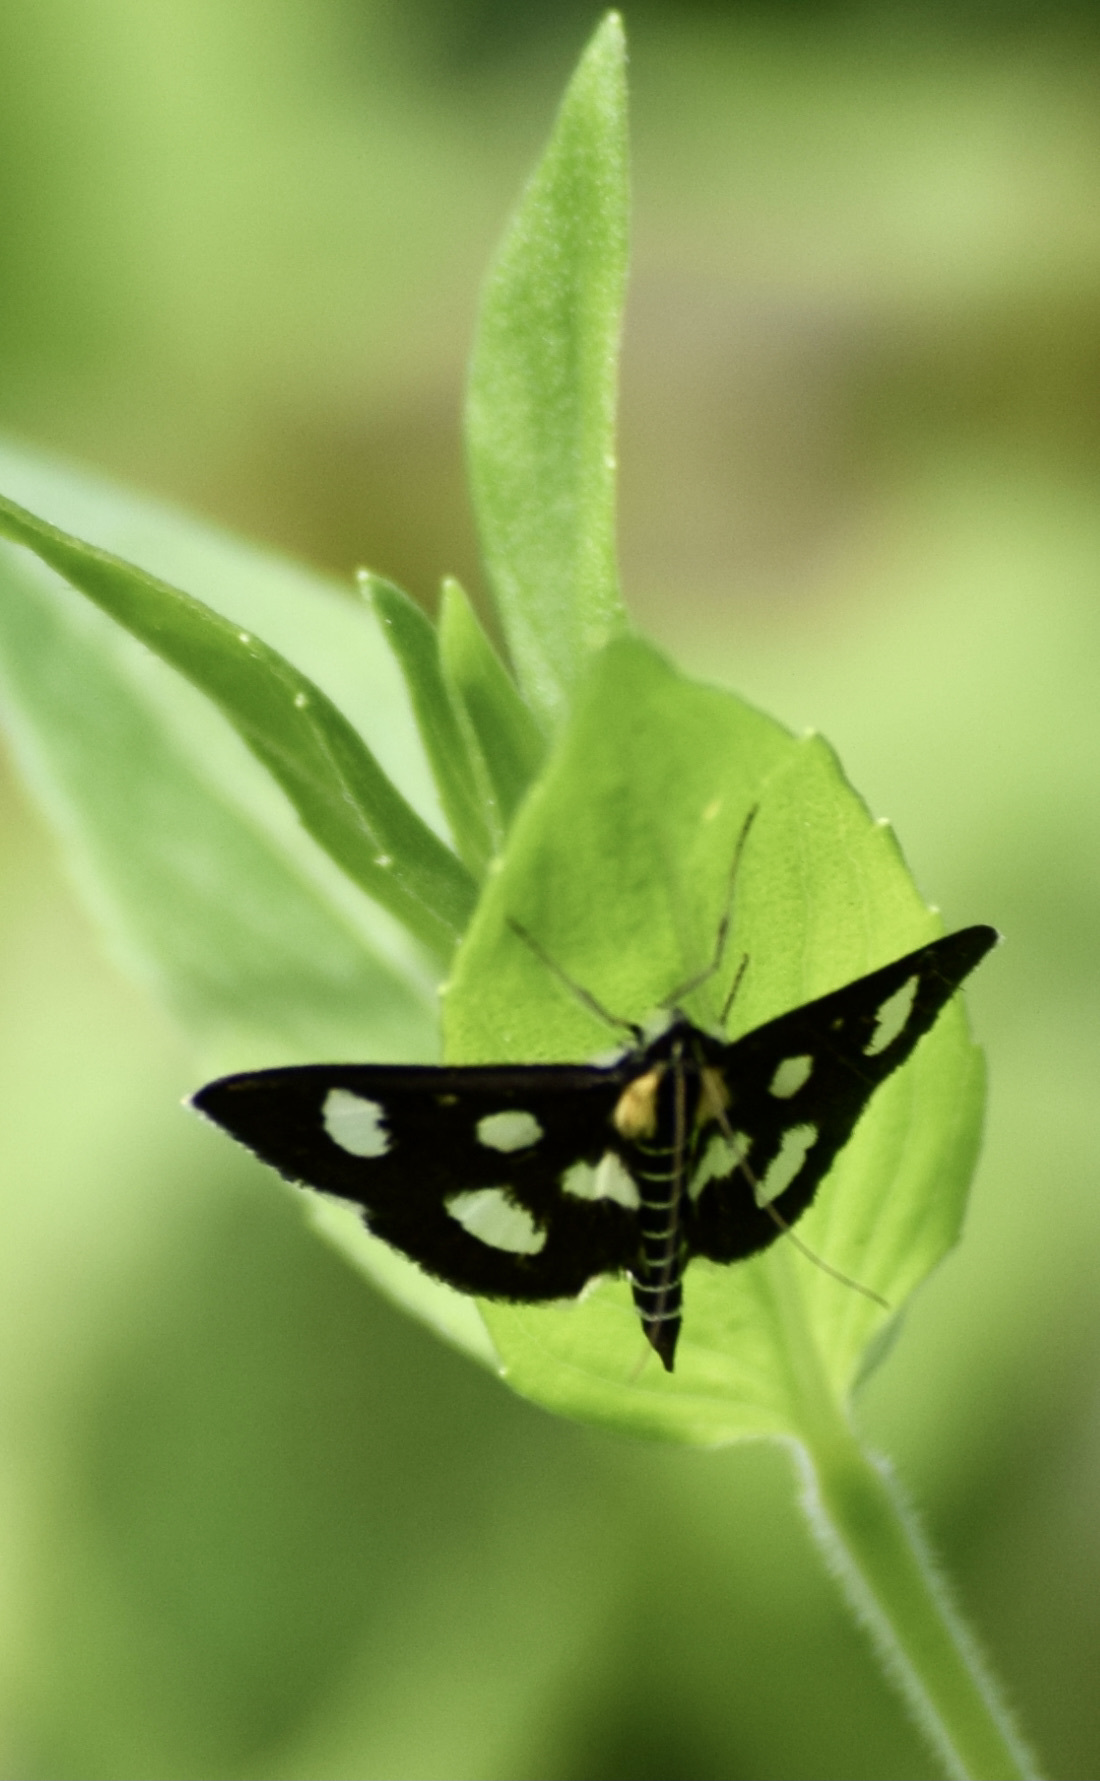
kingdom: Animalia
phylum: Arthropoda
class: Insecta
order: Lepidoptera
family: Crambidae
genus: Anania
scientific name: Anania funebris
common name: White-spotted sable moth
